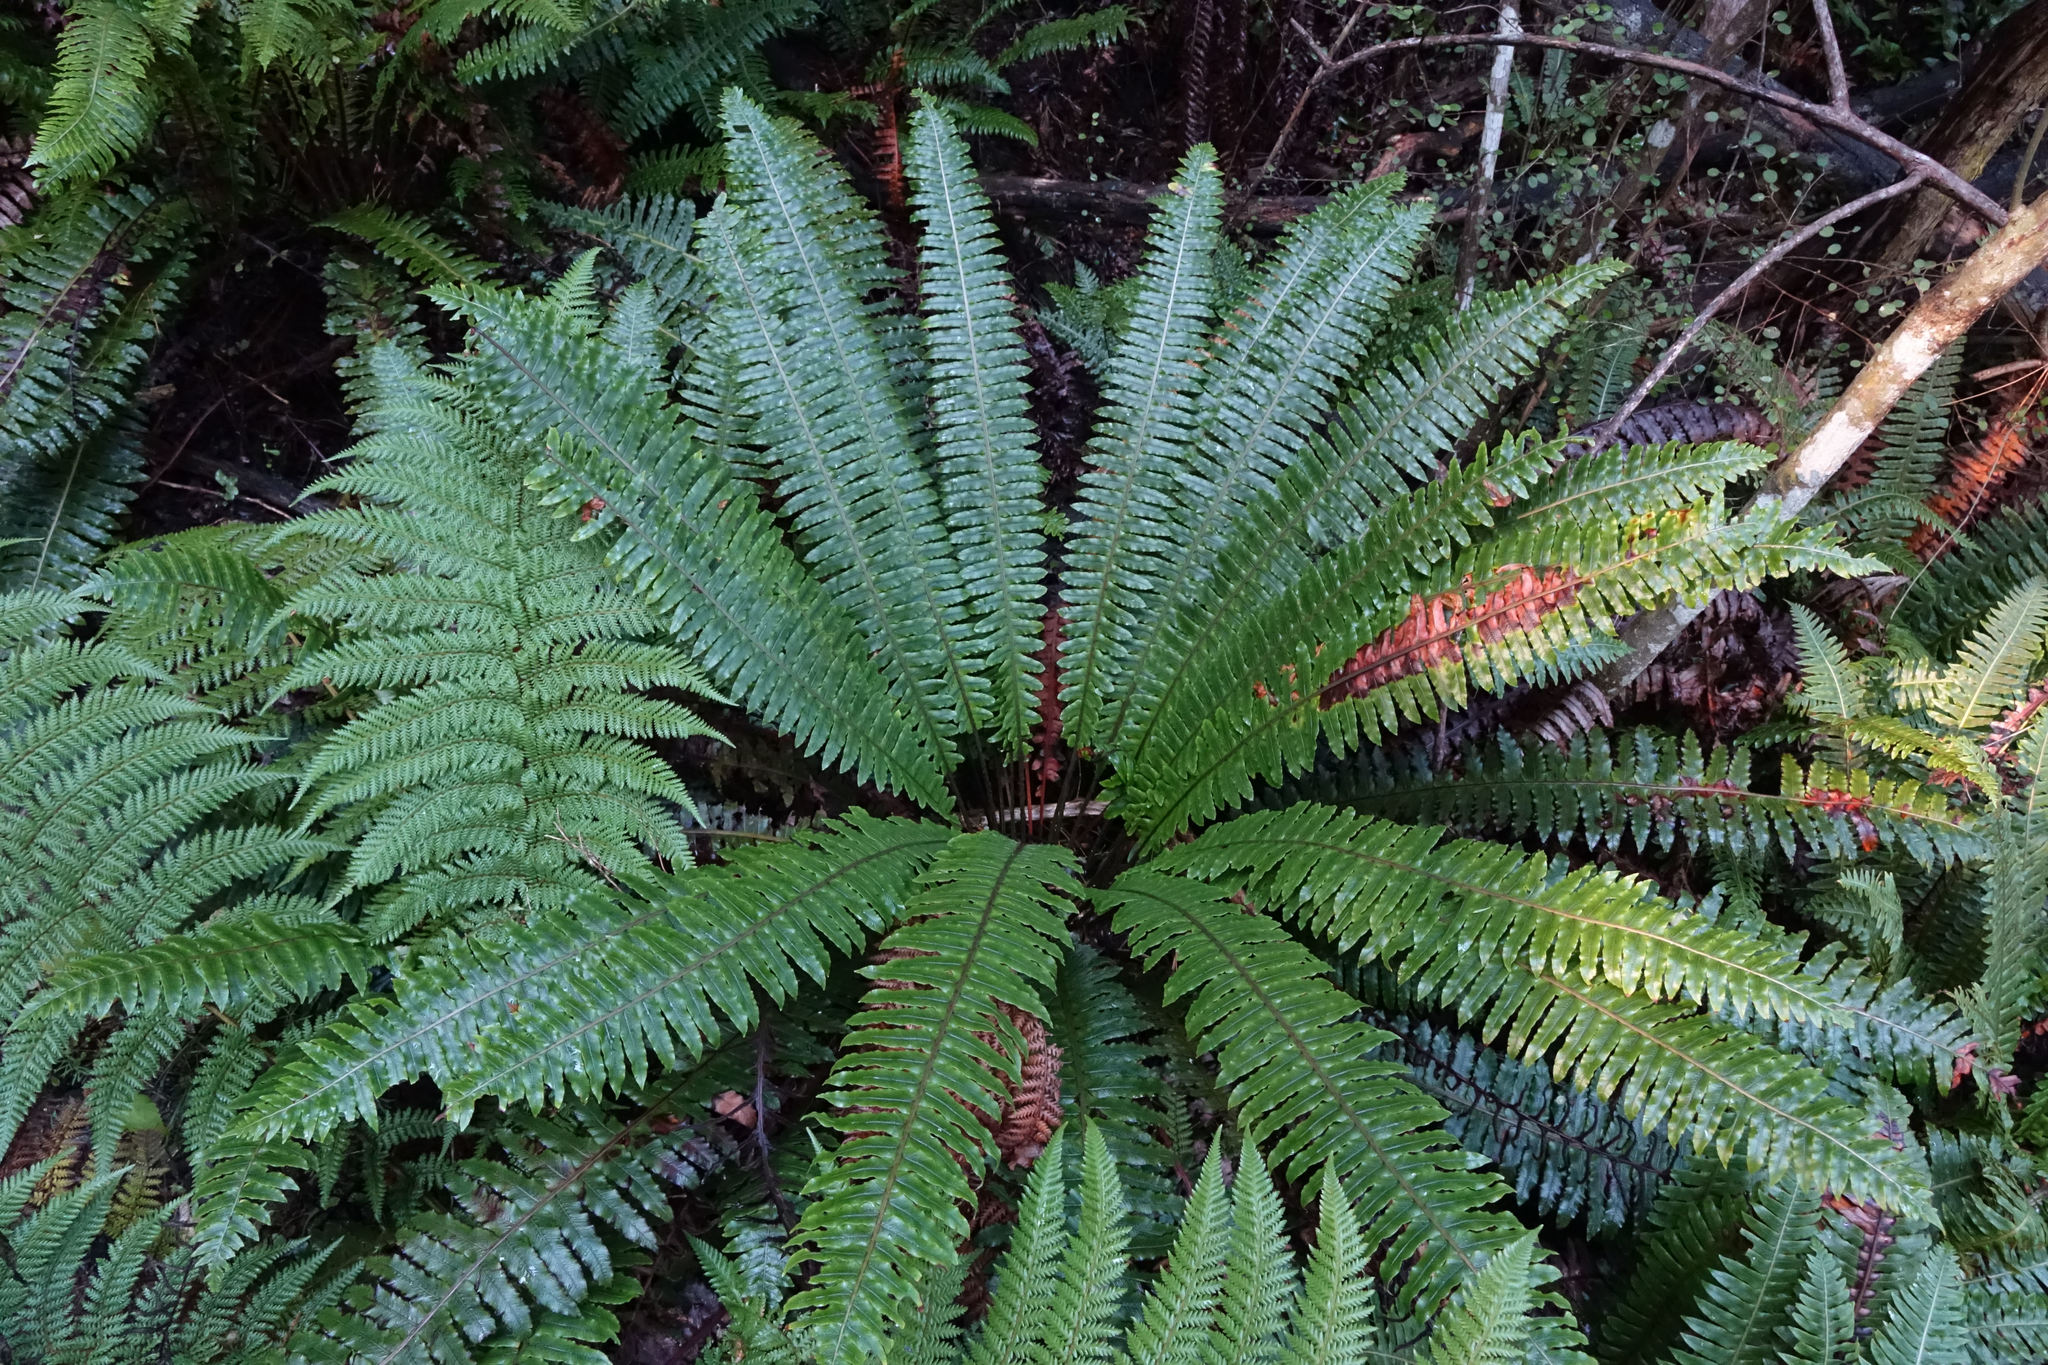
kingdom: Plantae
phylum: Tracheophyta
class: Polypodiopsida
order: Polypodiales
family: Blechnaceae
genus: Lomaria
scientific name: Lomaria discolor
